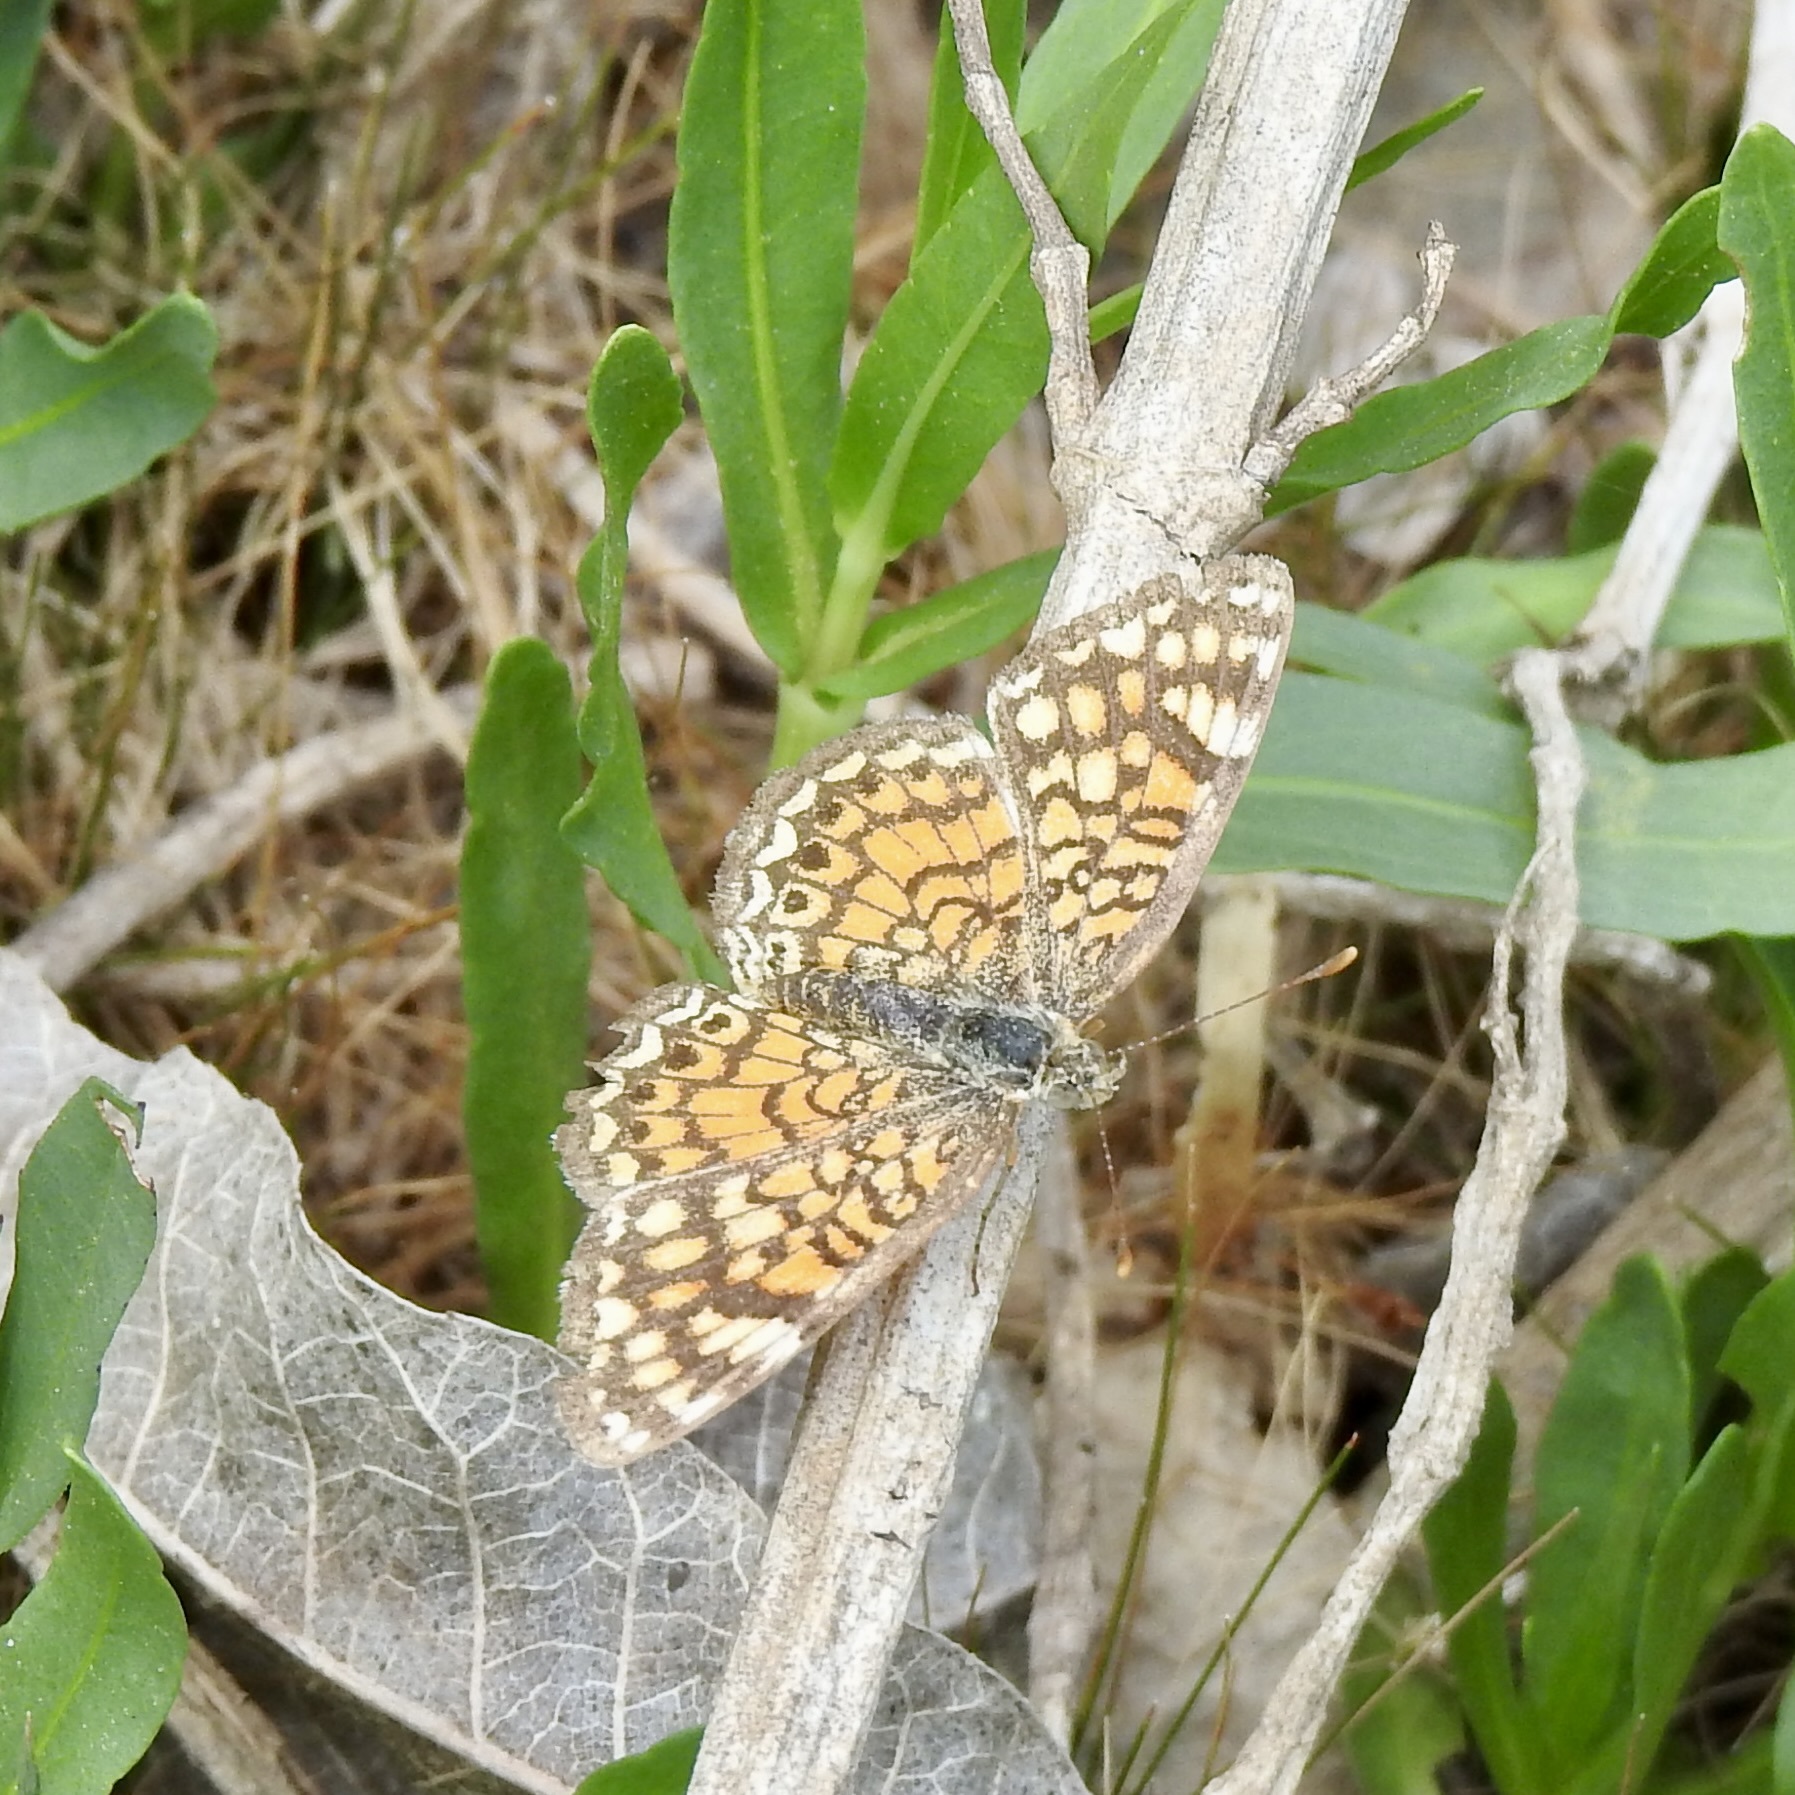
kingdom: Animalia
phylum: Arthropoda
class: Insecta
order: Lepidoptera
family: Nymphalidae
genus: Phyciodes
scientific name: Phyciodes vesta
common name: Vesta crescent
